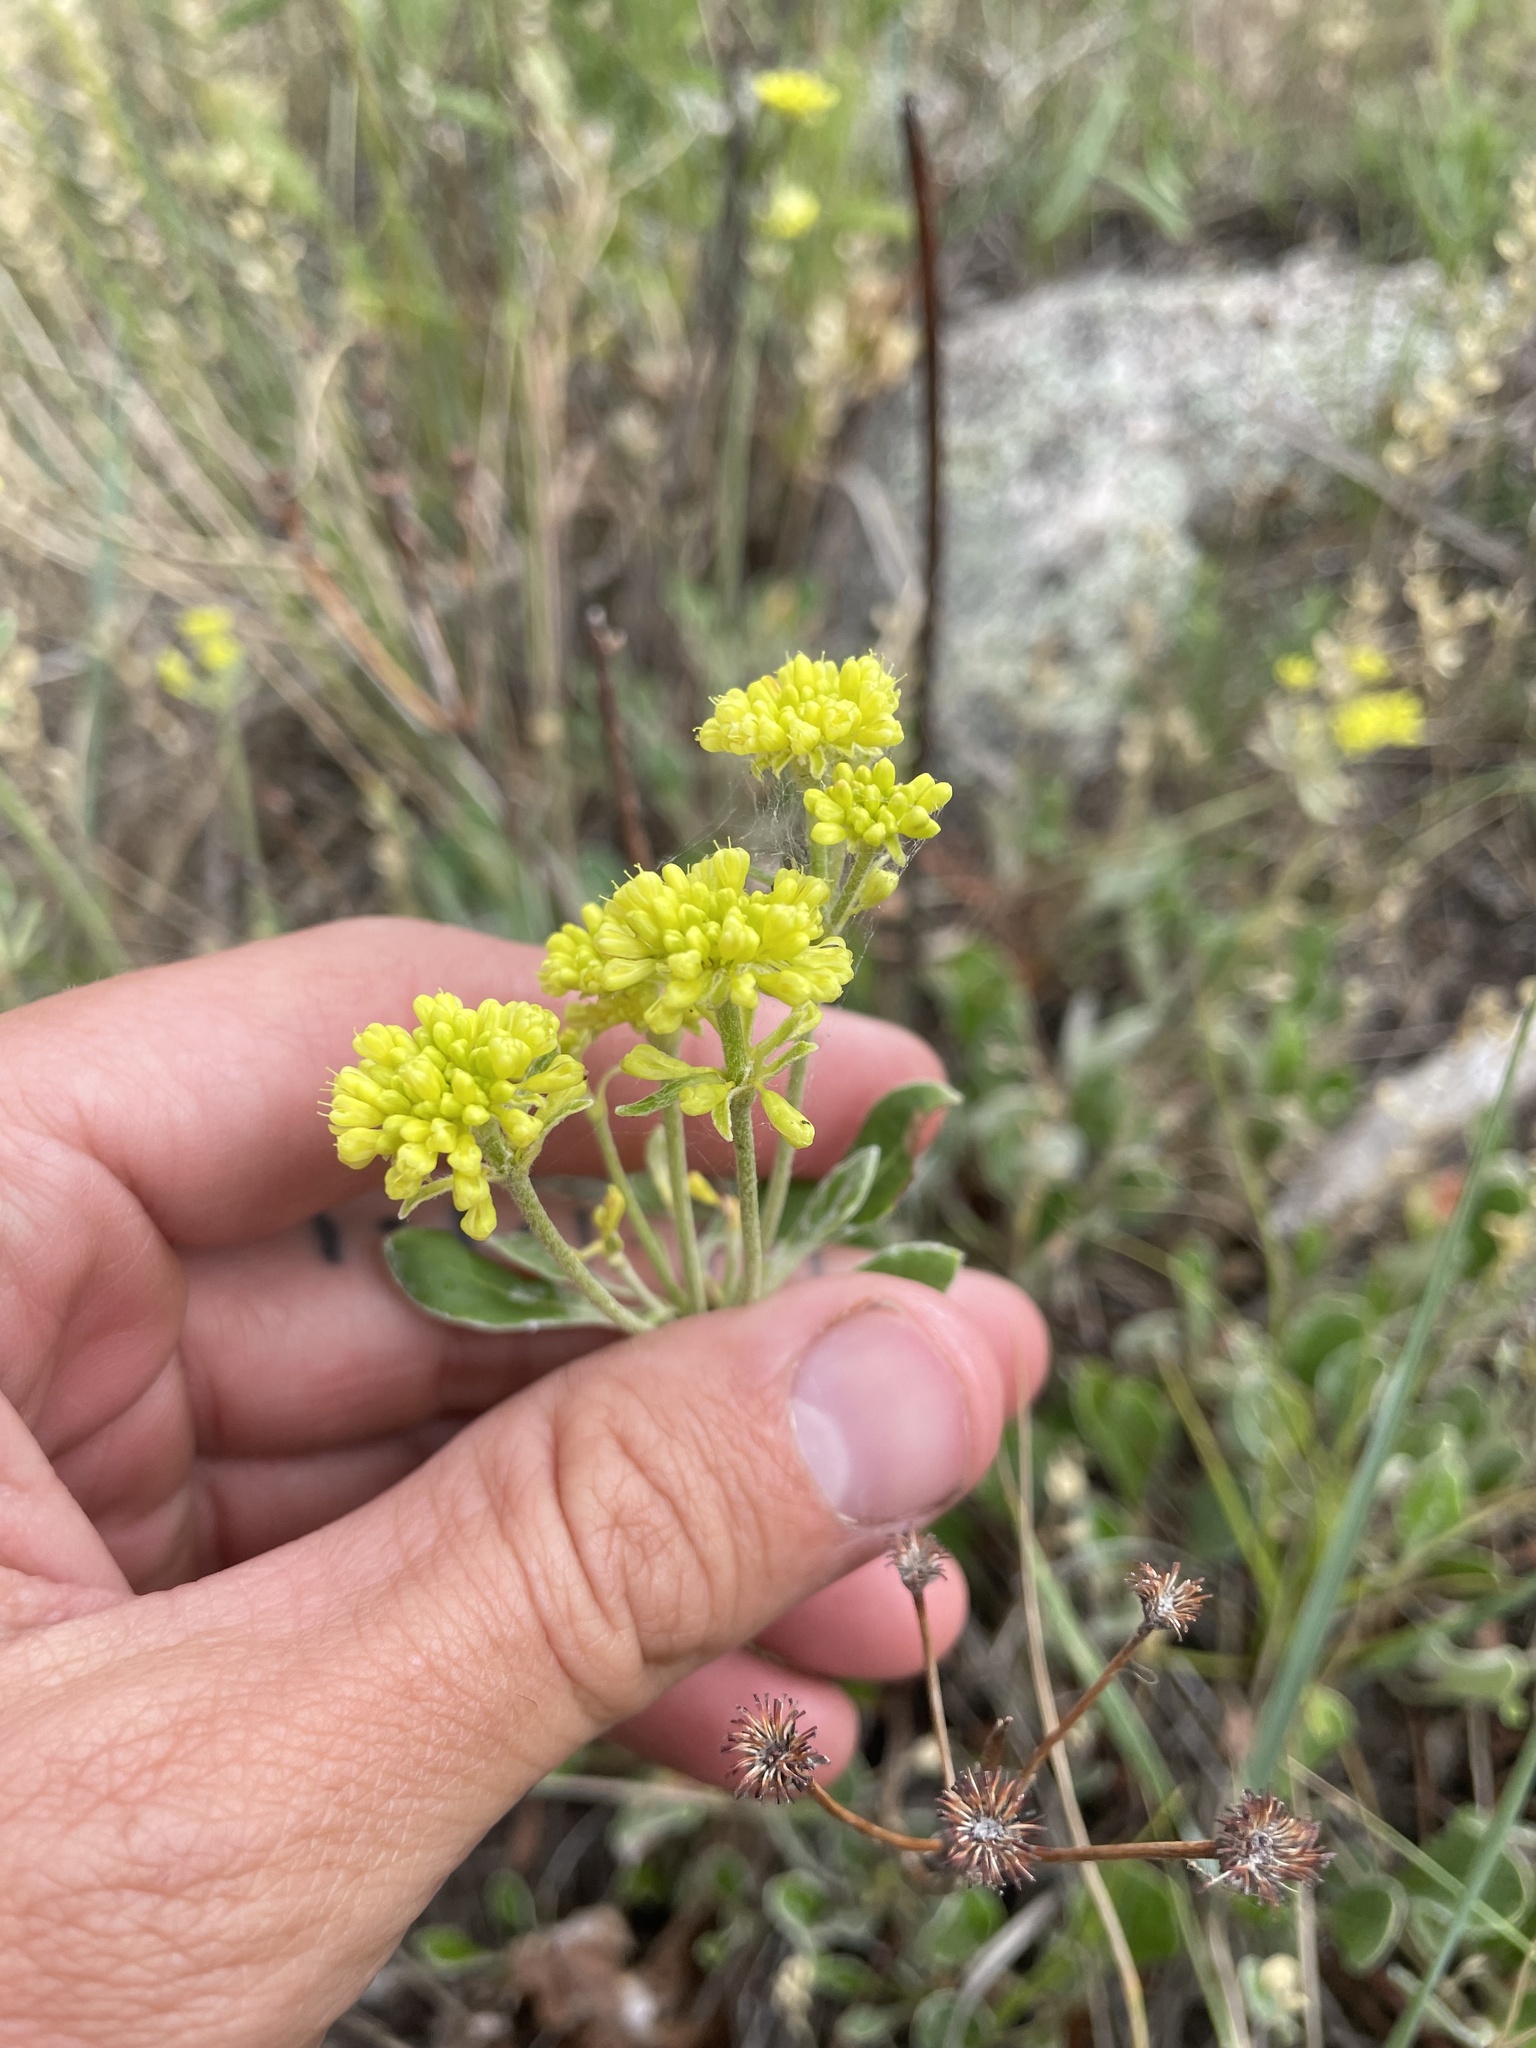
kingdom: Plantae
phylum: Tracheophyta
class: Magnoliopsida
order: Caryophyllales
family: Polygonaceae
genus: Eriogonum
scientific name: Eriogonum umbellatum
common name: Sulfur-buckwheat
